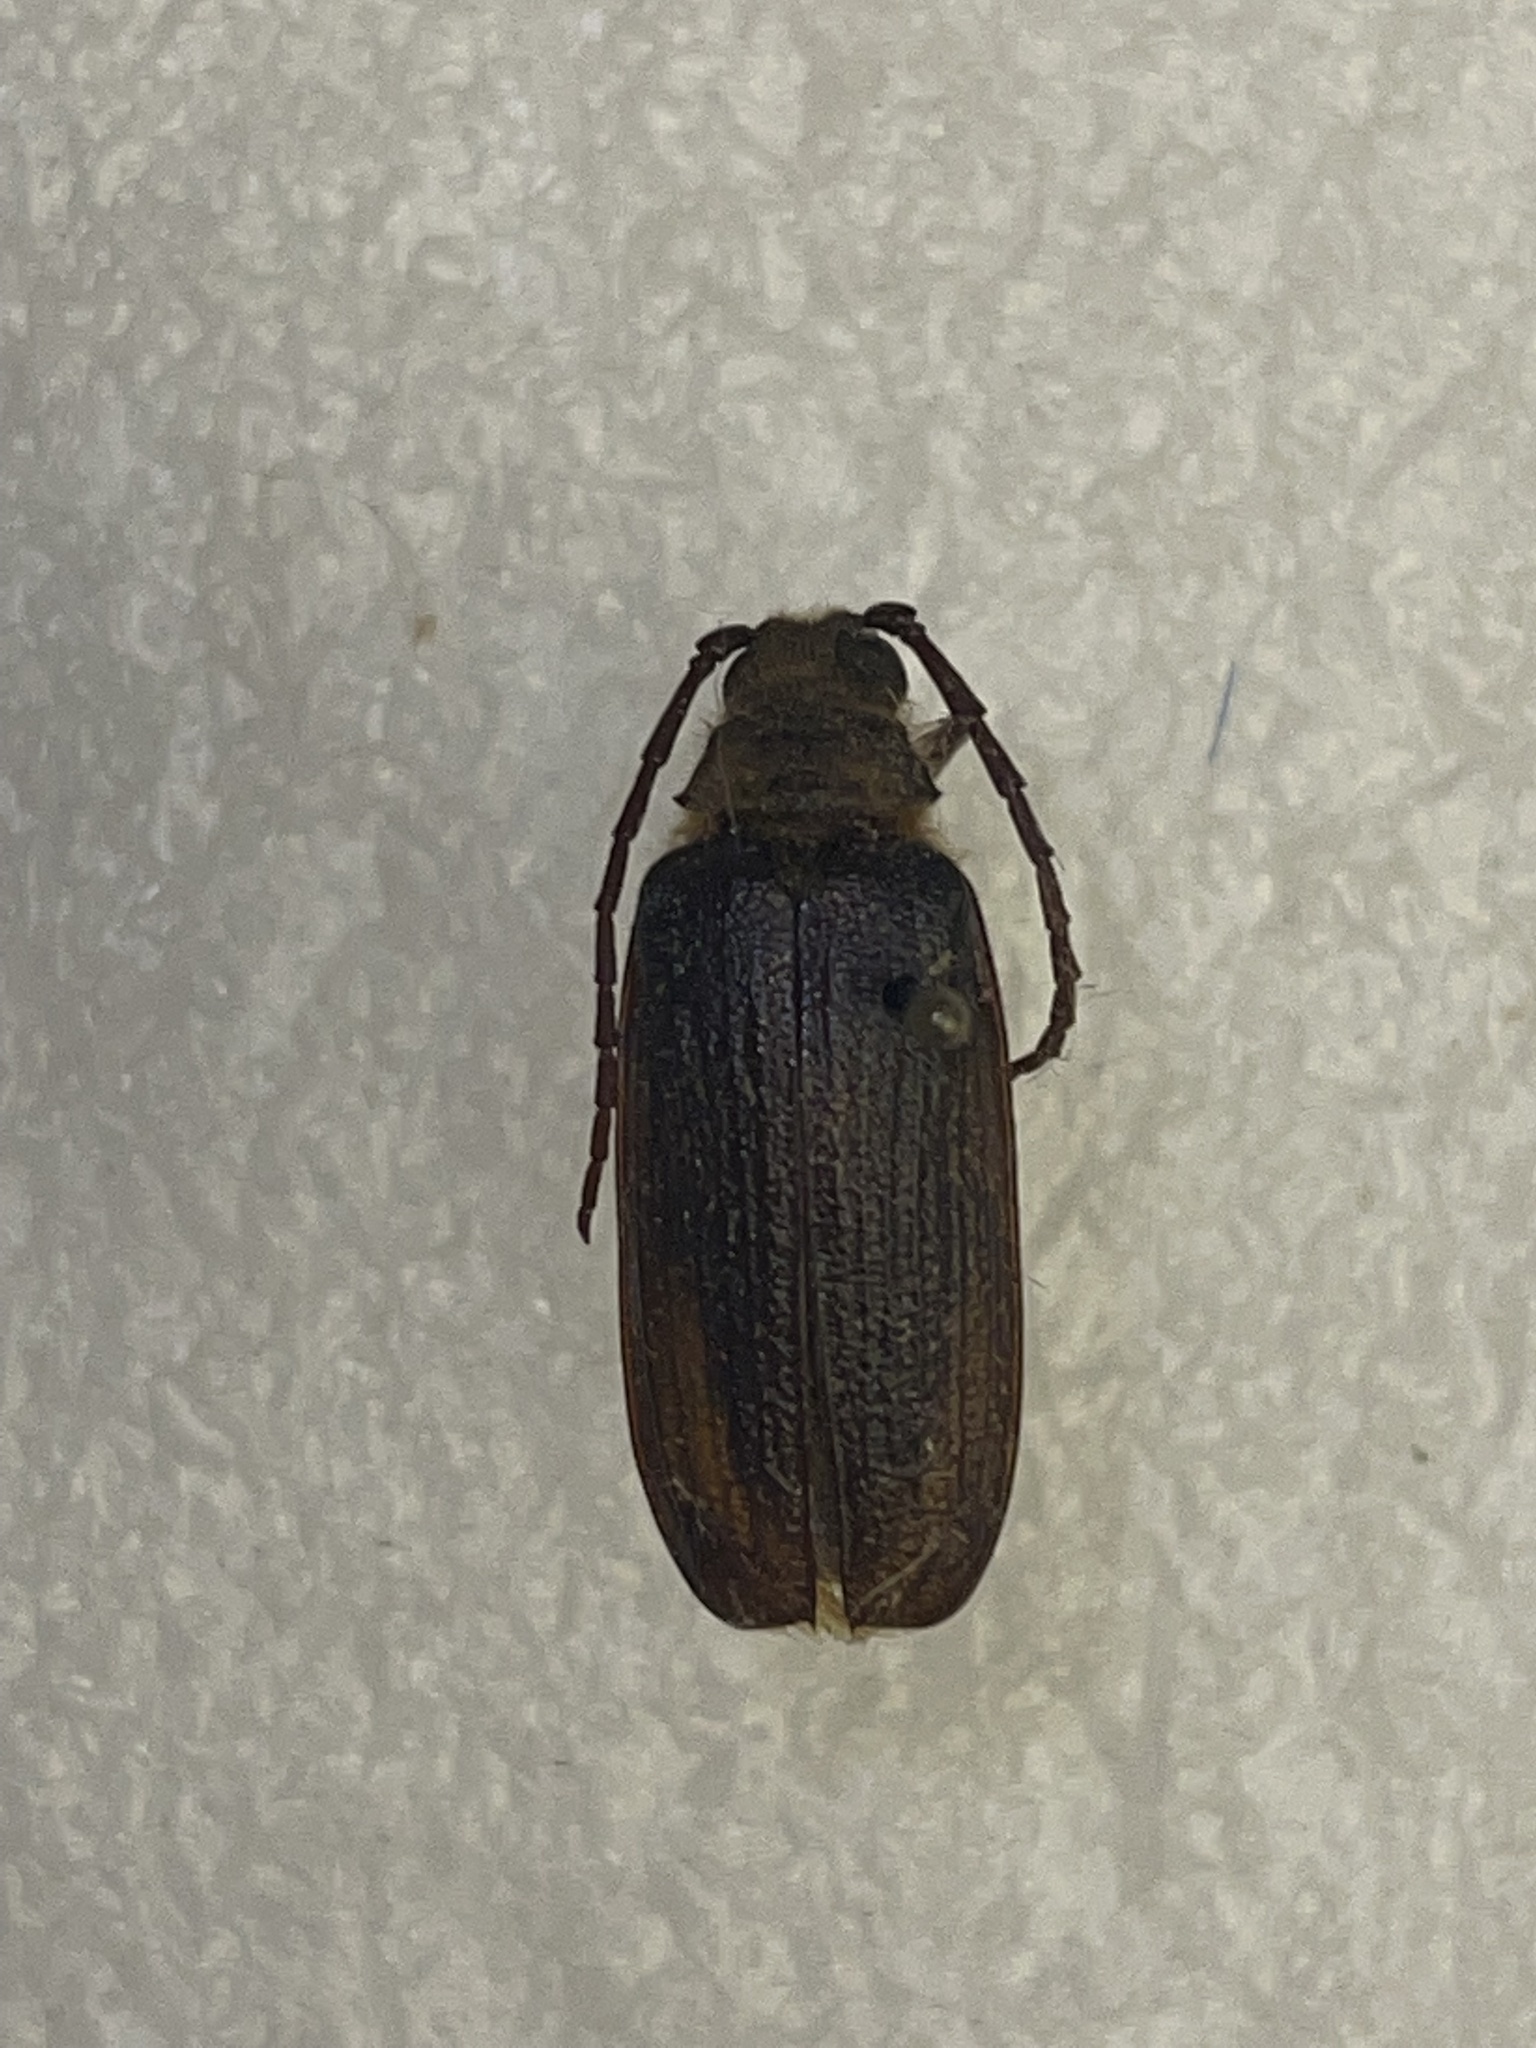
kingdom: Animalia
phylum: Arthropoda
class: Insecta
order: Coleoptera
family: Cerambycidae
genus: Tragosoma
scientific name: Tragosoma harrisii
